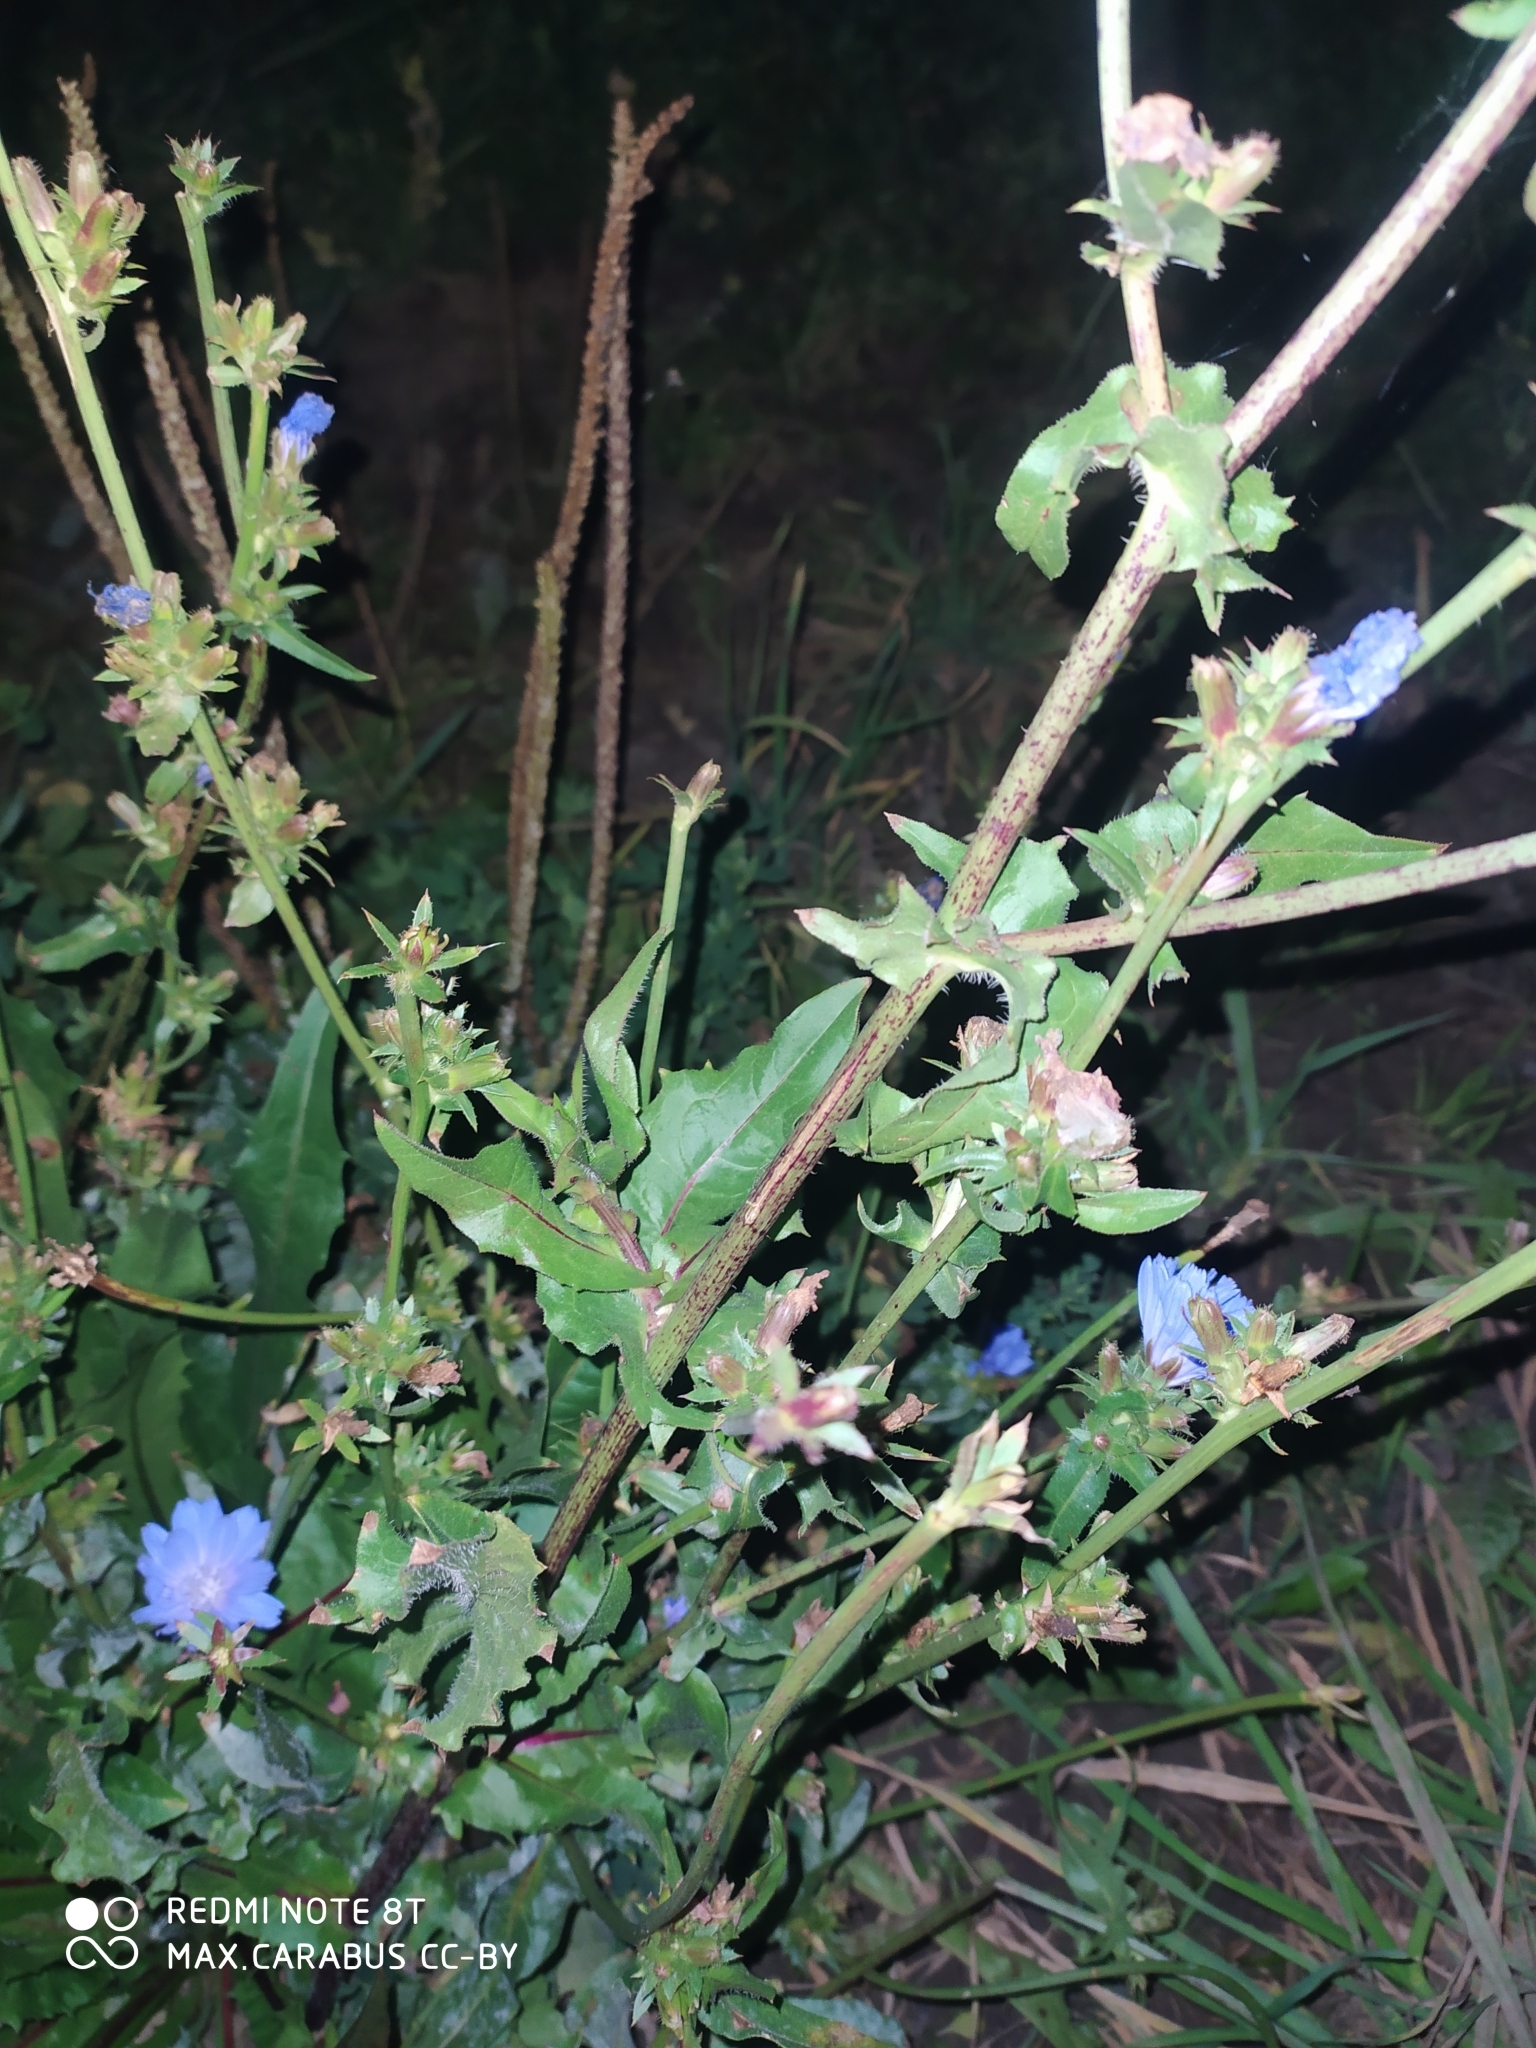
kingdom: Plantae
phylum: Tracheophyta
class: Magnoliopsida
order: Asterales
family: Asteraceae
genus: Cichorium
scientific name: Cichorium intybus
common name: Chicory
